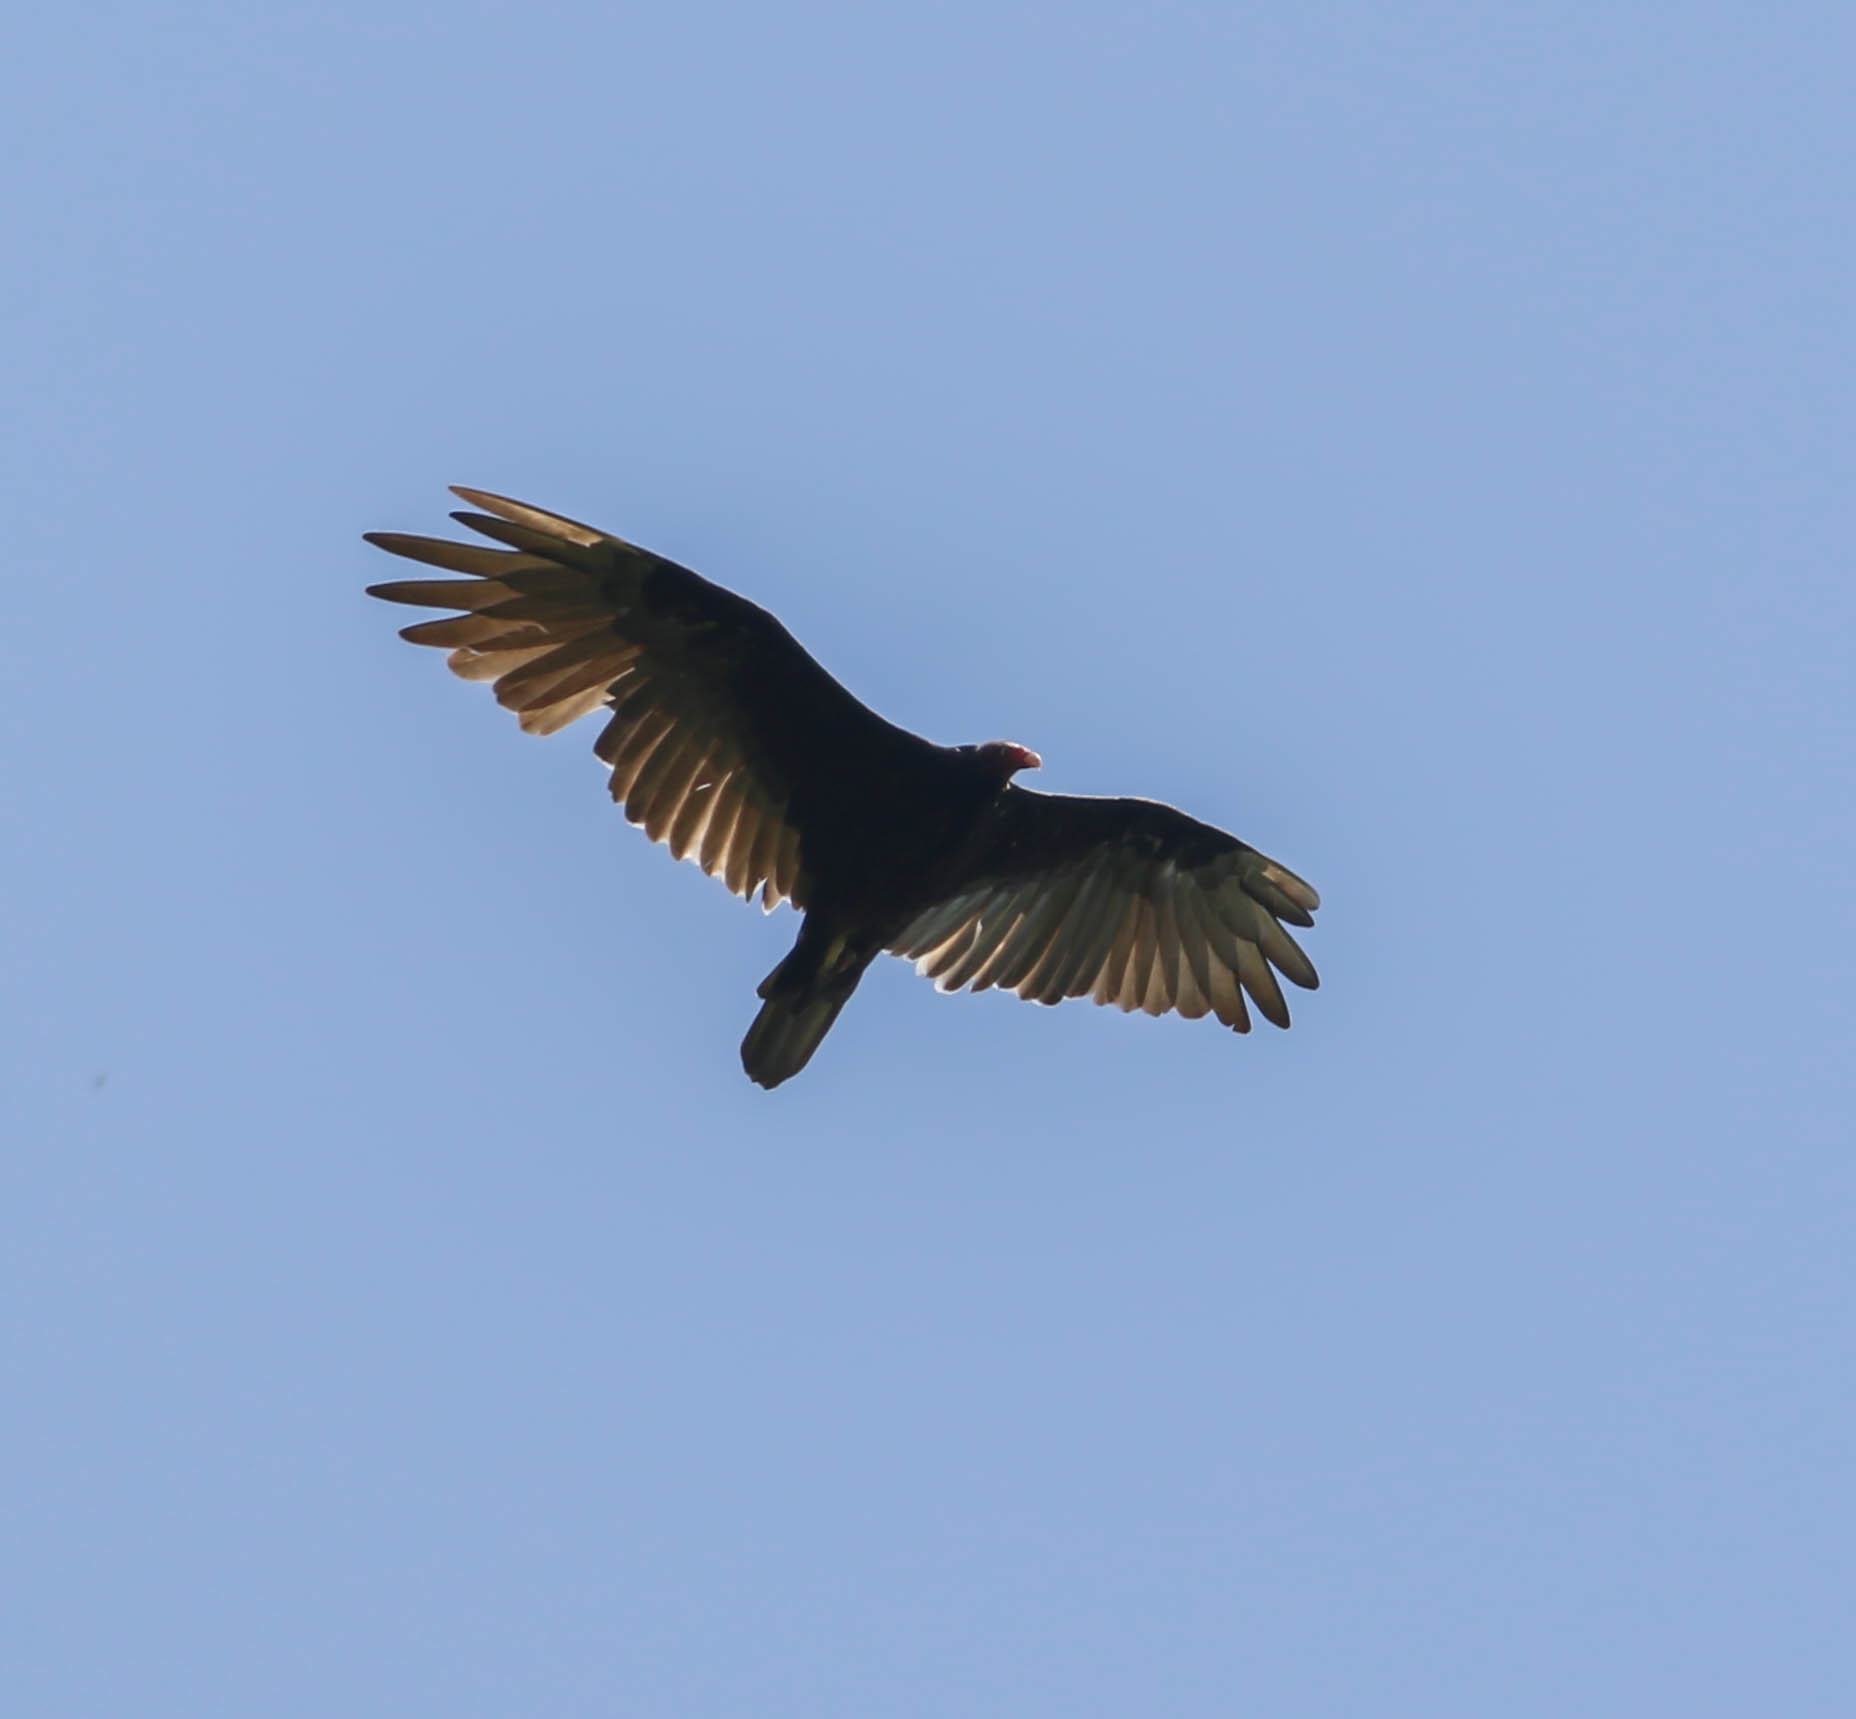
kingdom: Animalia
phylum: Chordata
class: Aves
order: Accipitriformes
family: Cathartidae
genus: Cathartes
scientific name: Cathartes aura
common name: Turkey vulture
